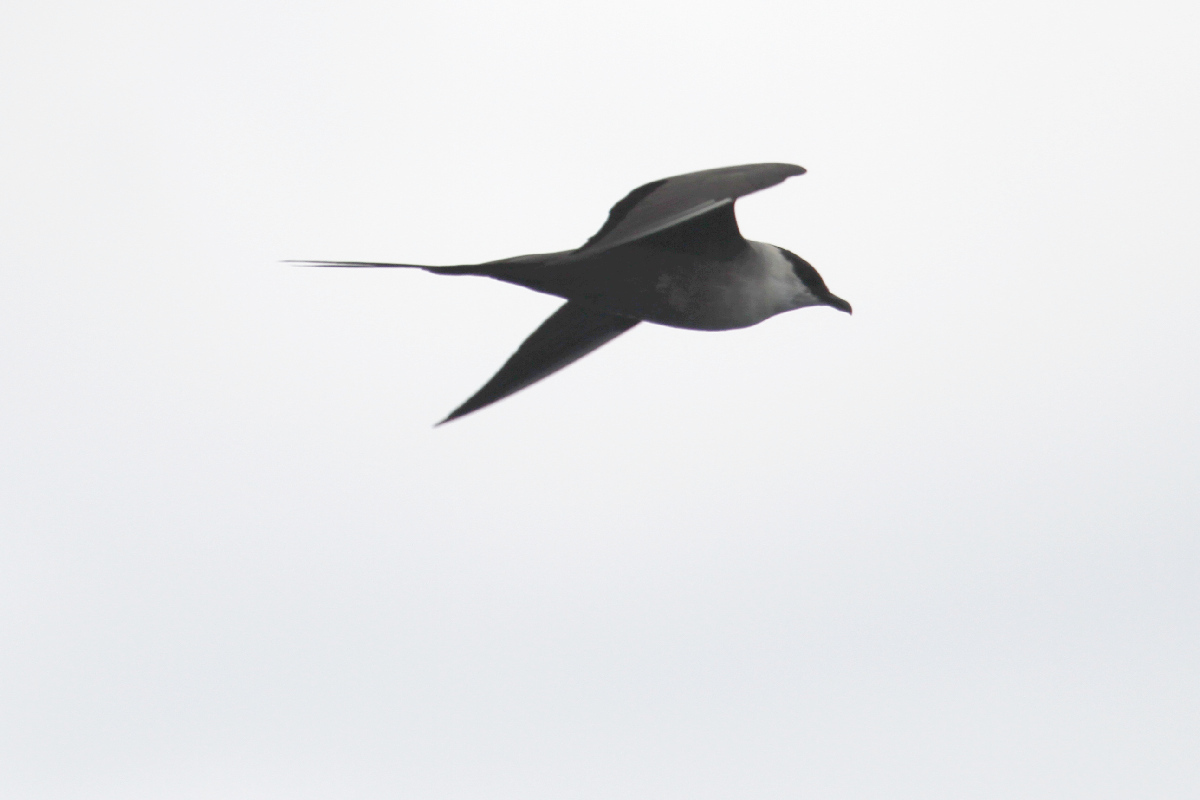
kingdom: Animalia
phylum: Chordata
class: Aves
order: Charadriiformes
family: Stercorariidae
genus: Stercorarius
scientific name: Stercorarius longicaudus
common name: Long-tailed jaeger
